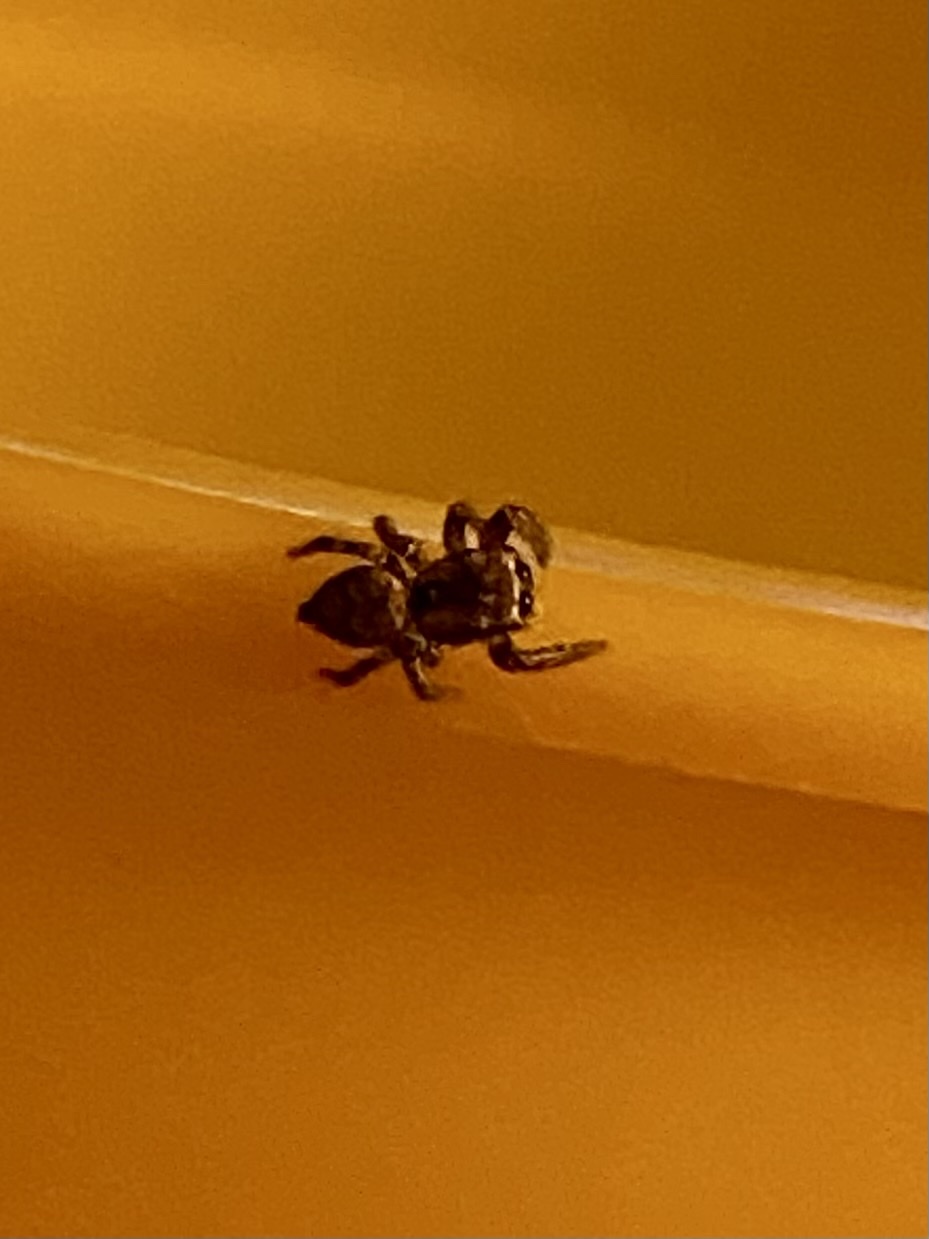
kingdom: Animalia
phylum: Arthropoda
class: Arachnida
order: Araneae
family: Salticidae
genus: Habronattus
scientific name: Habronattus geronimoi
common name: Jumping spiders
